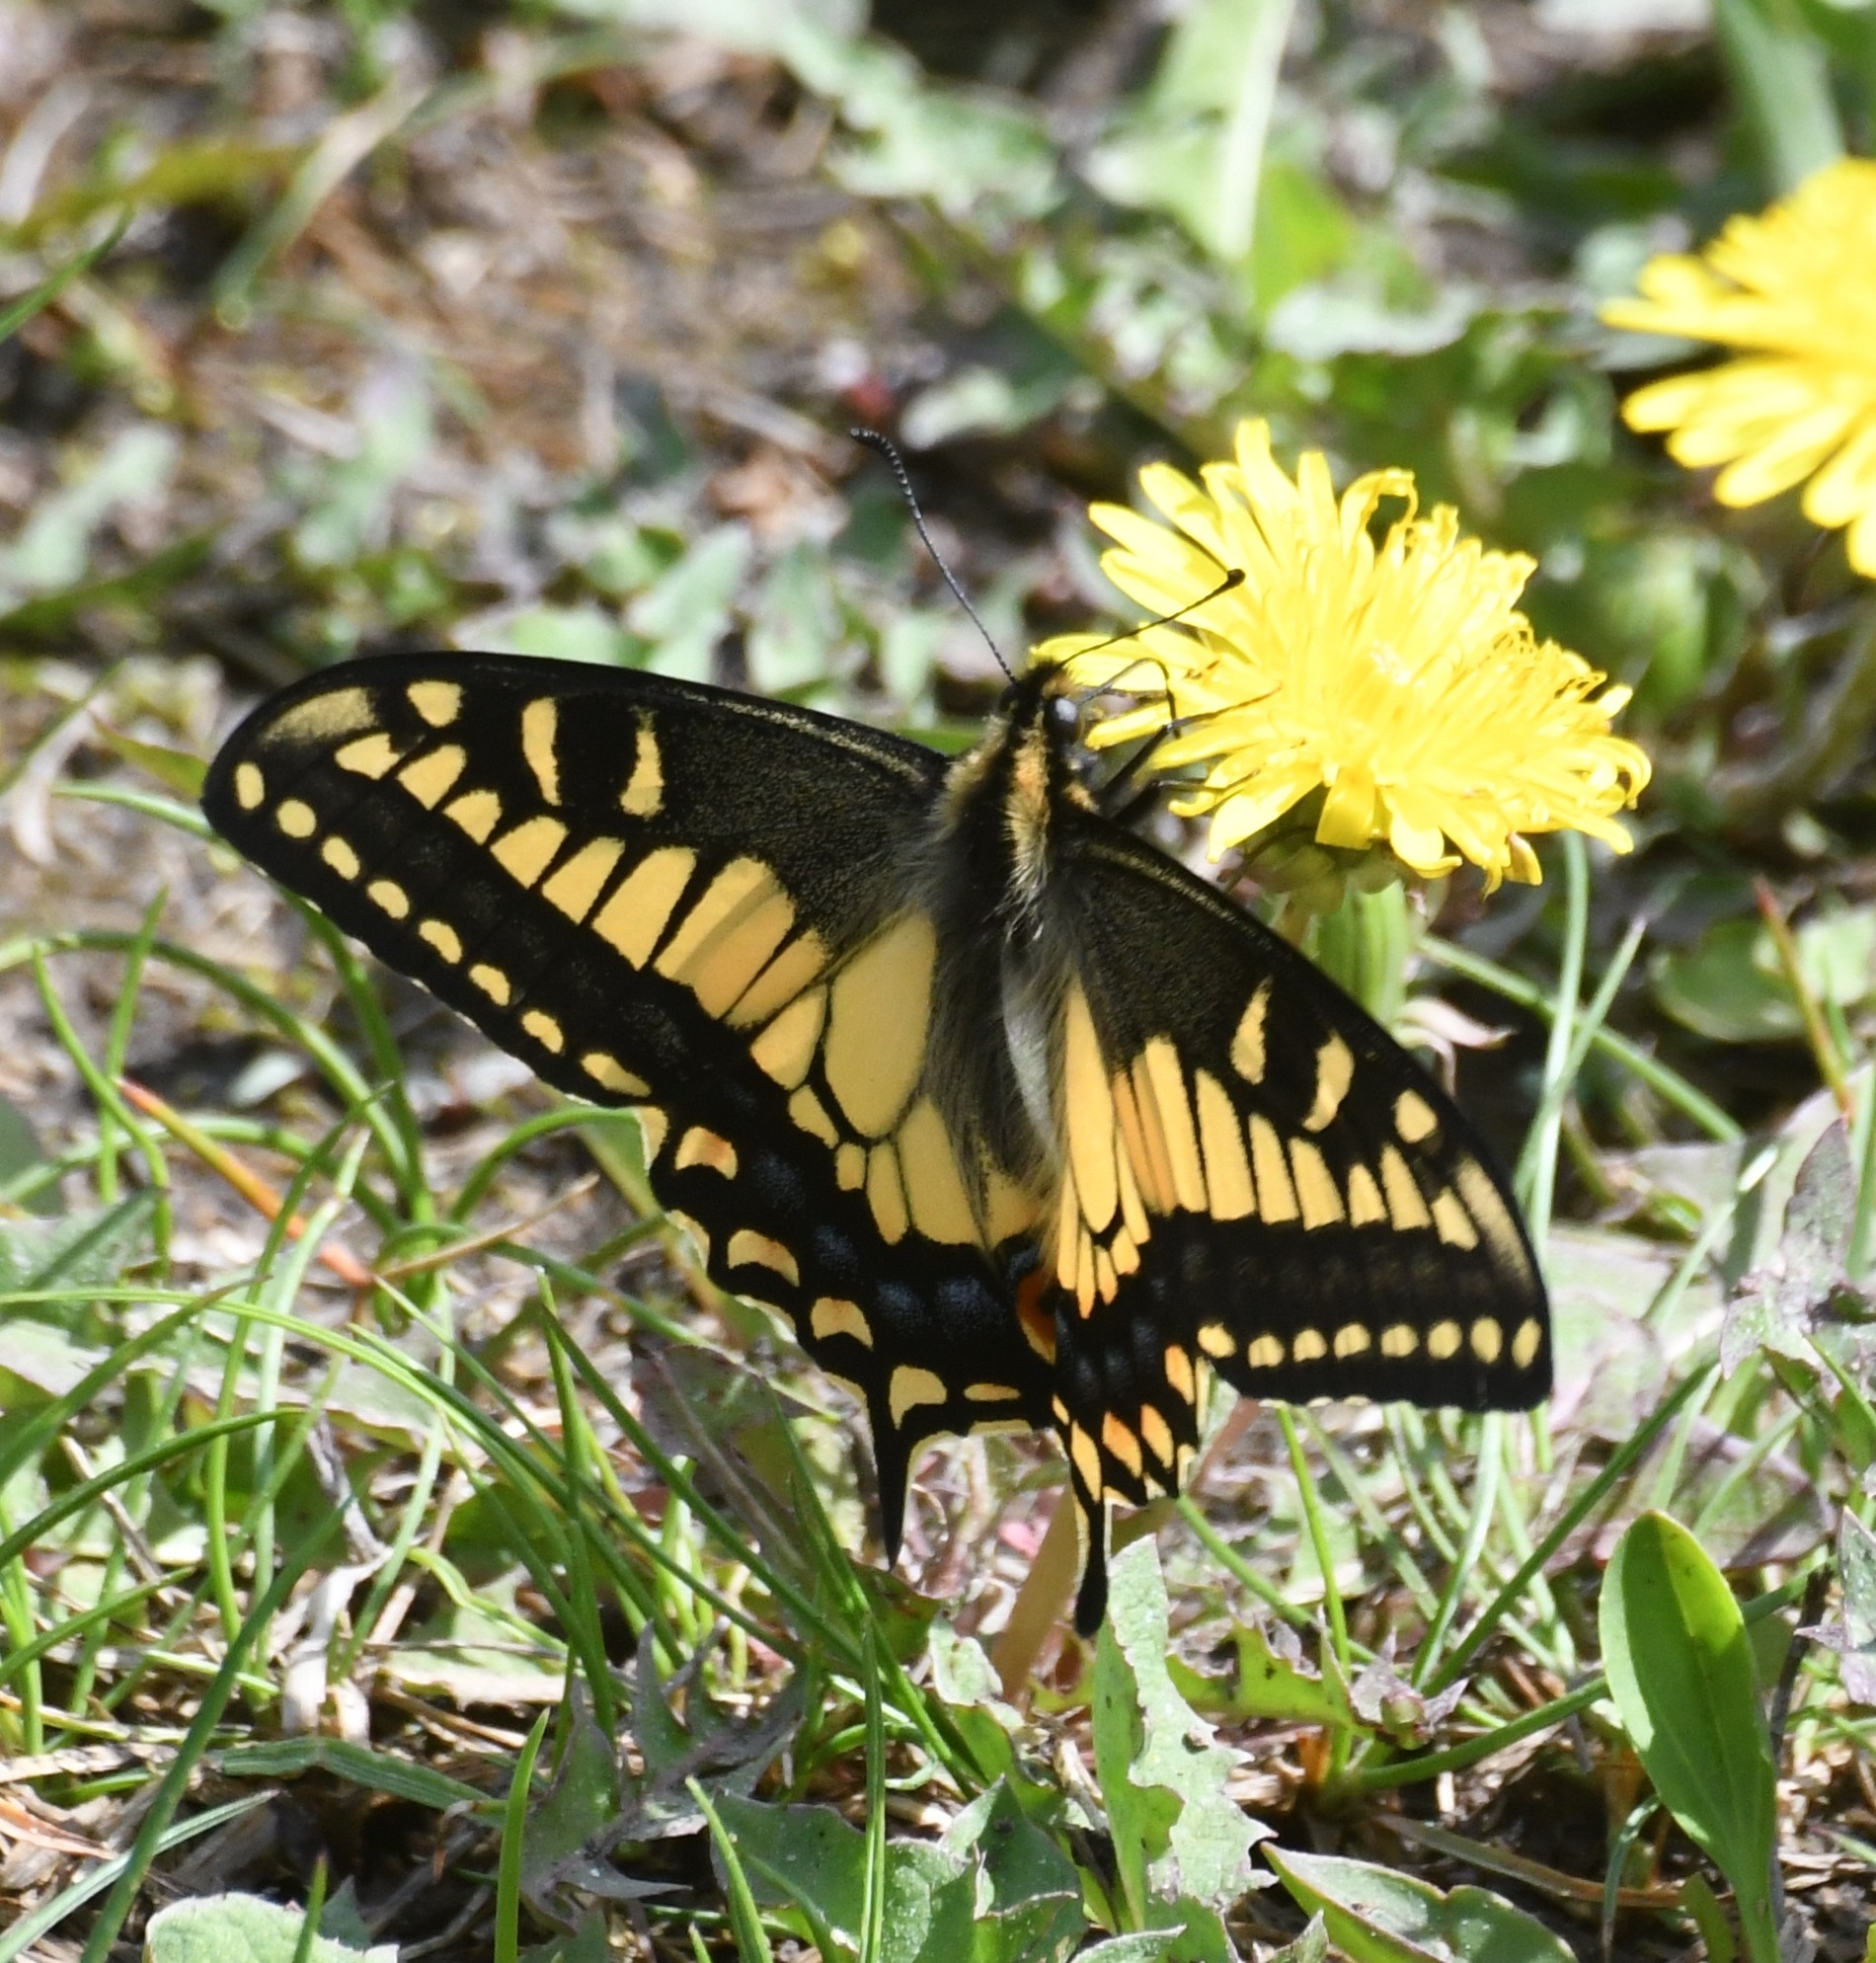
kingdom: Animalia
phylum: Arthropoda
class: Insecta
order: Lepidoptera
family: Papilionidae
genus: Papilio
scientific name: Papilio zelicaon
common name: Anise swallowtail
